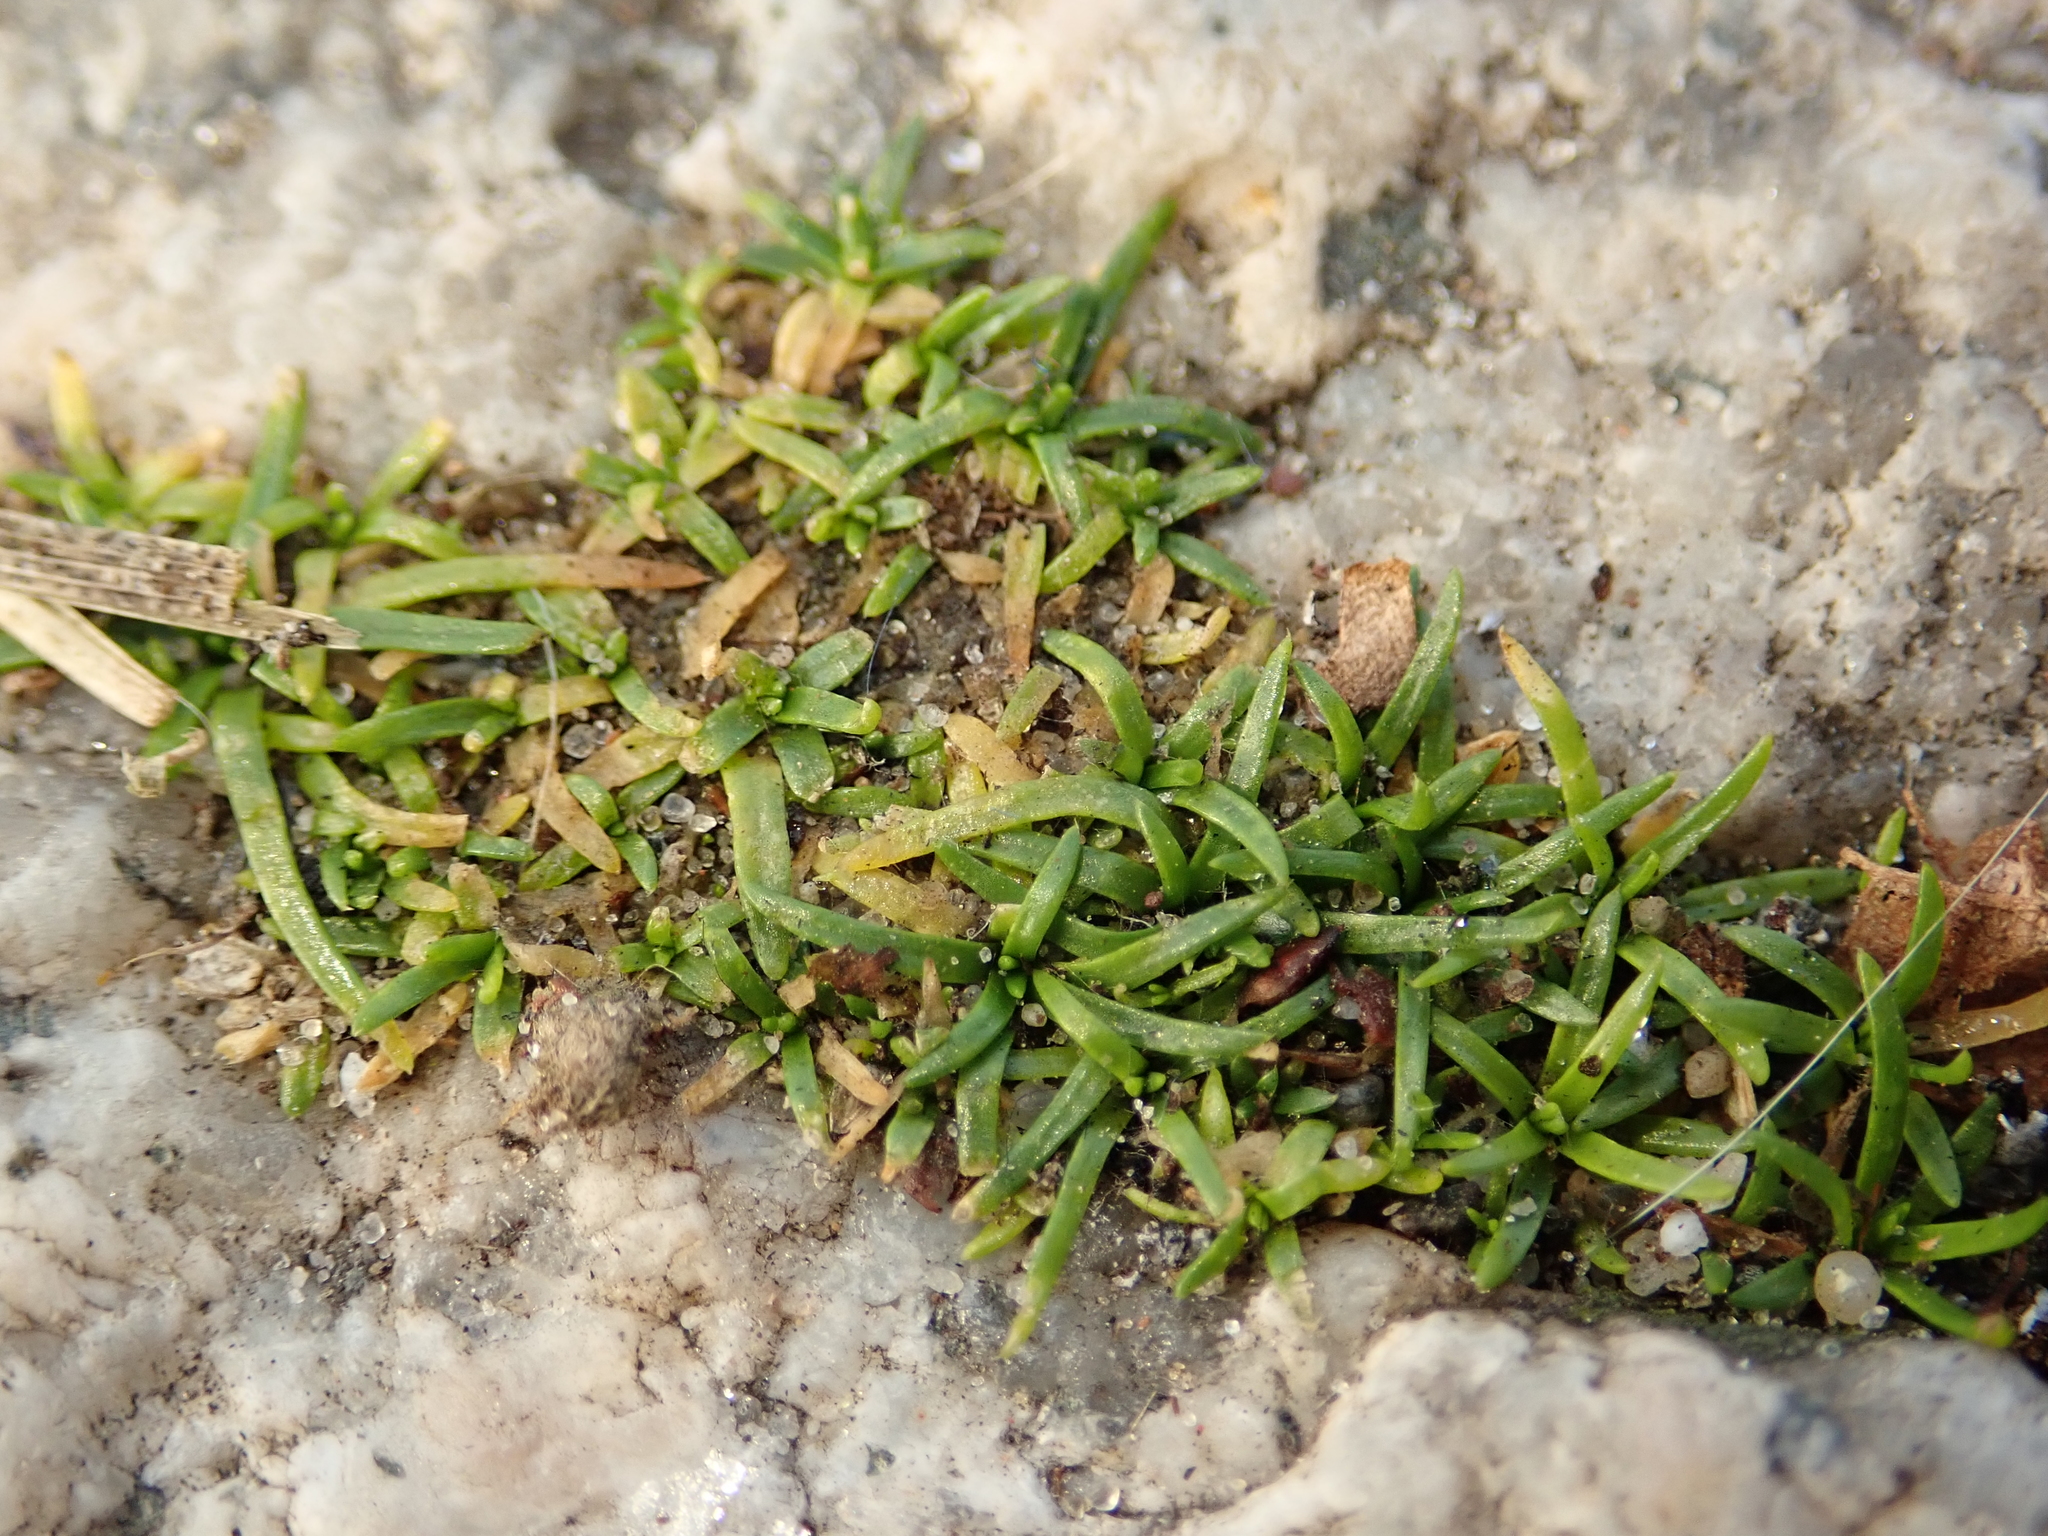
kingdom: Plantae
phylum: Tracheophyta
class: Magnoliopsida
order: Caryophyllales
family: Caryophyllaceae
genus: Sagina
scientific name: Sagina procumbens
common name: Procumbent pearlwort
